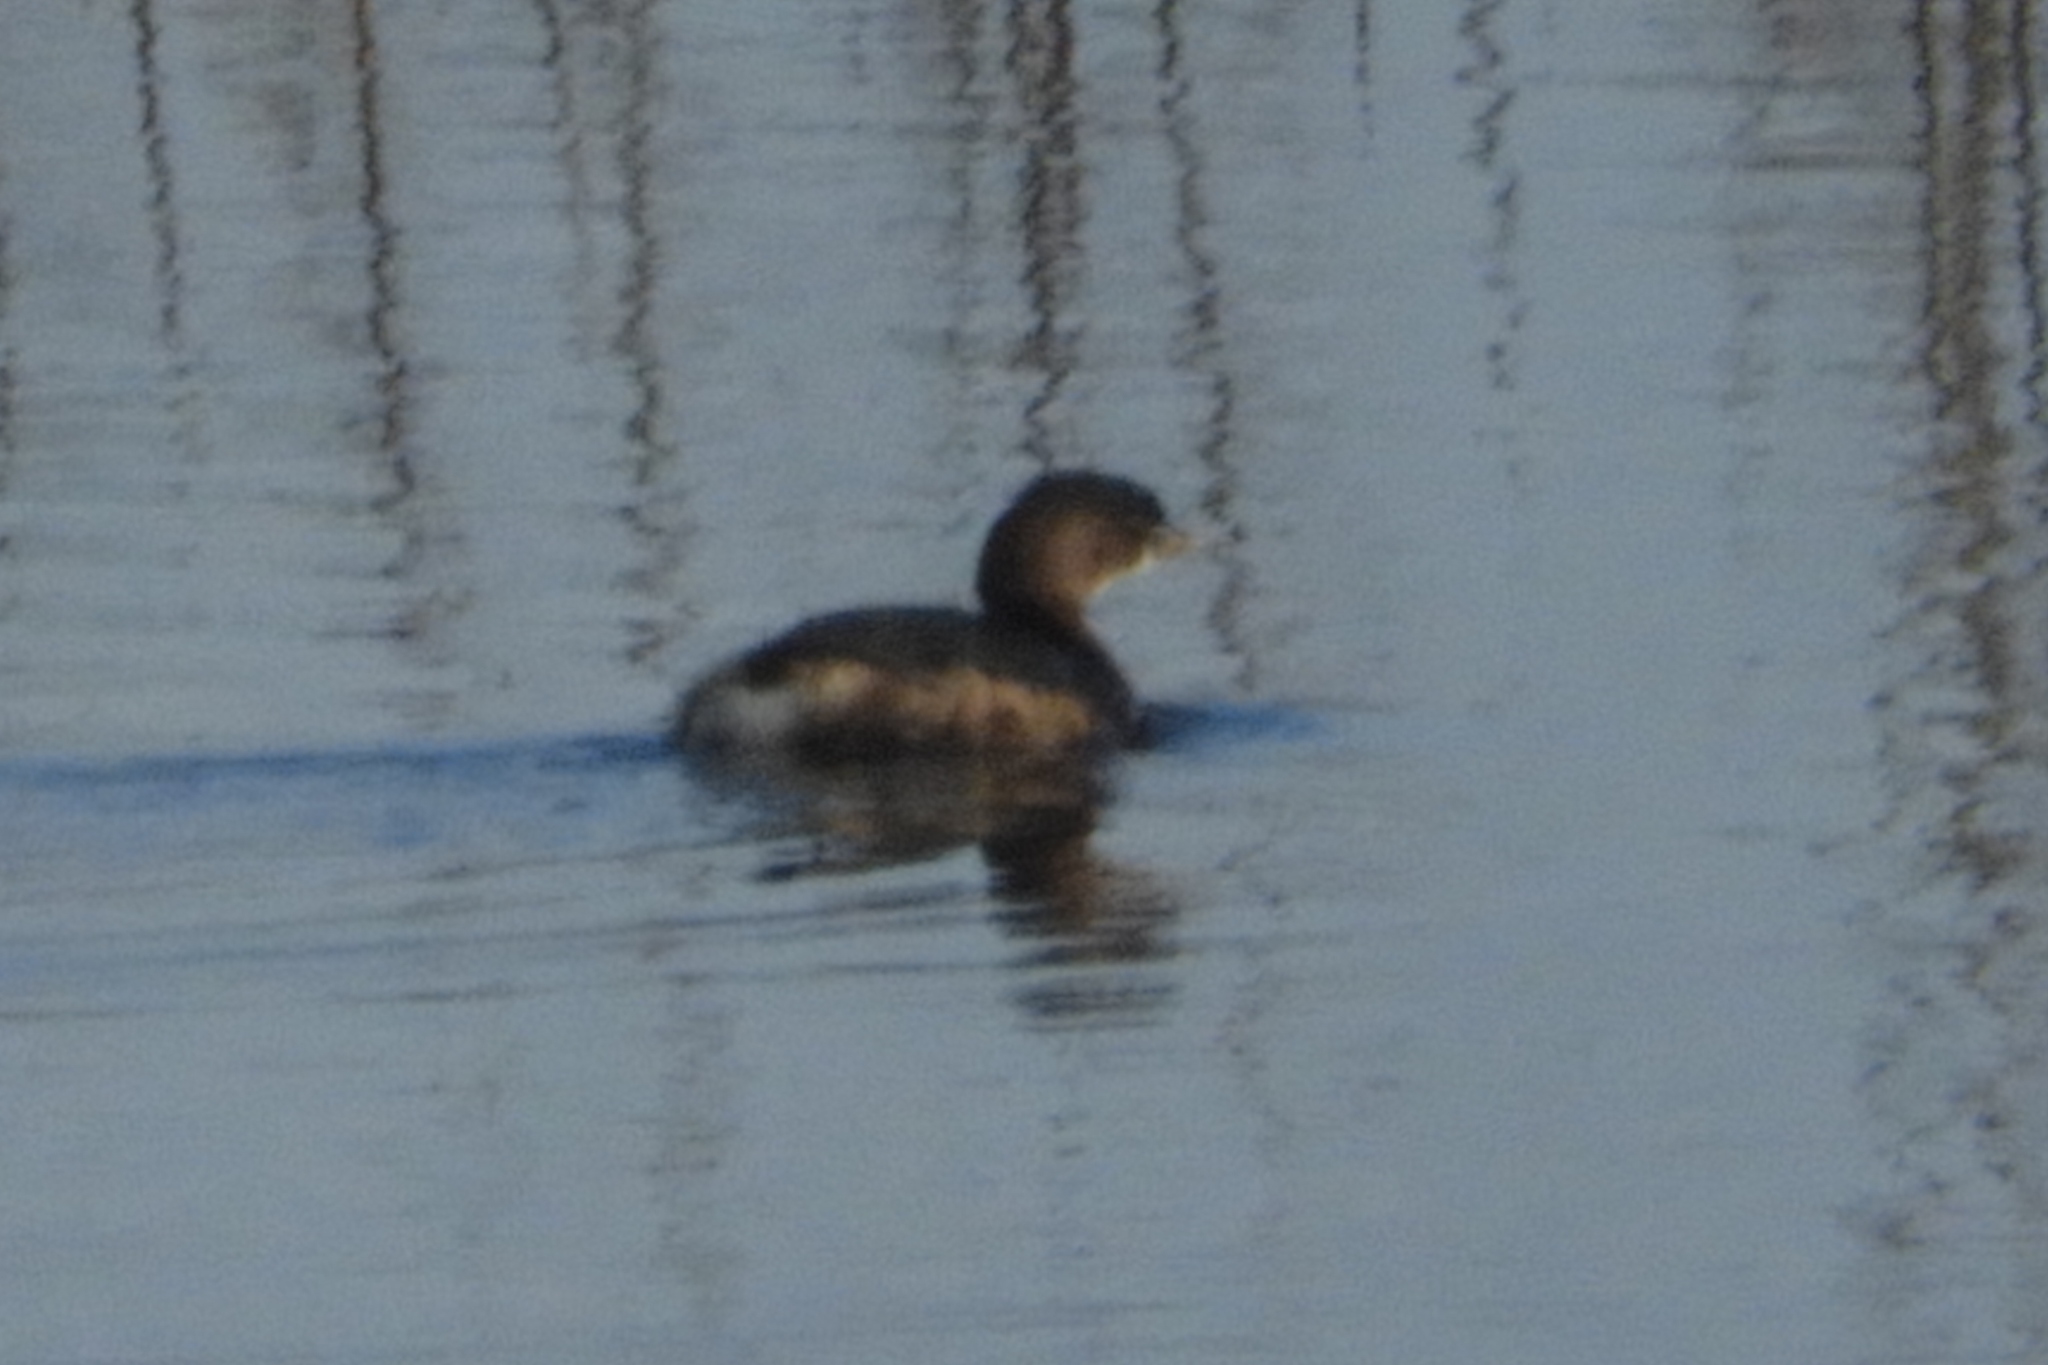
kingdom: Animalia
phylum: Chordata
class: Aves
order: Podicipediformes
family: Podicipedidae
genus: Podilymbus
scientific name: Podilymbus podiceps
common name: Pied-billed grebe
